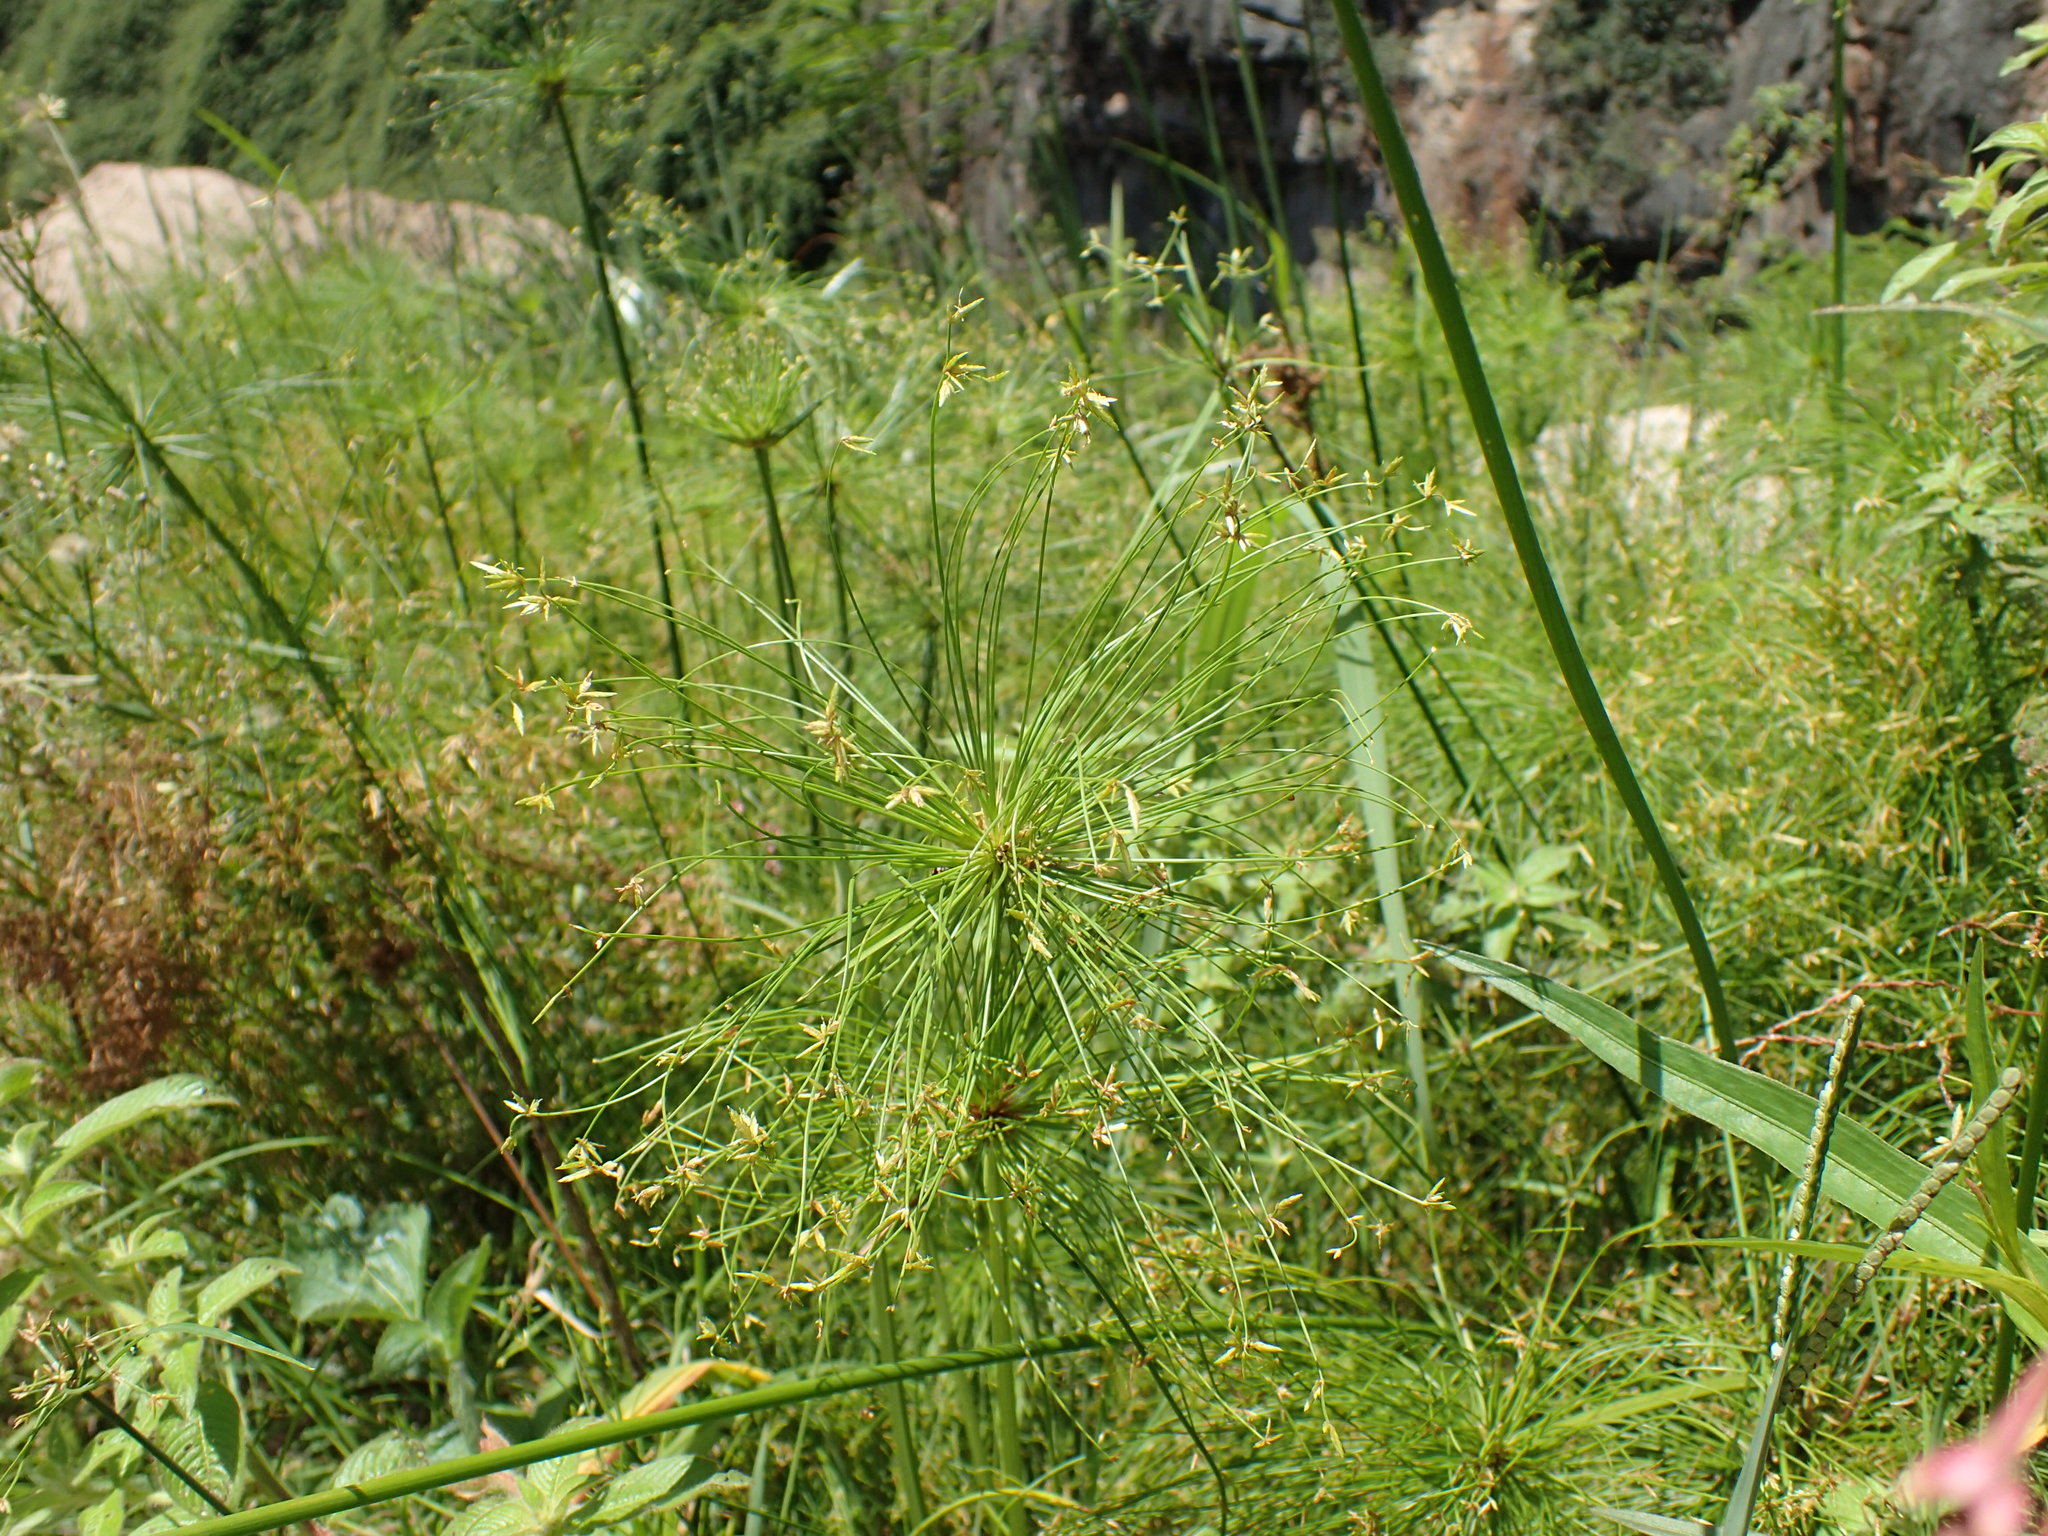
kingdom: Plantae
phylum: Tracheophyta
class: Liliopsida
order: Poales
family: Cyperaceae
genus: Cyperus
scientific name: Cyperus prolifer
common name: Miniature flatsedge
